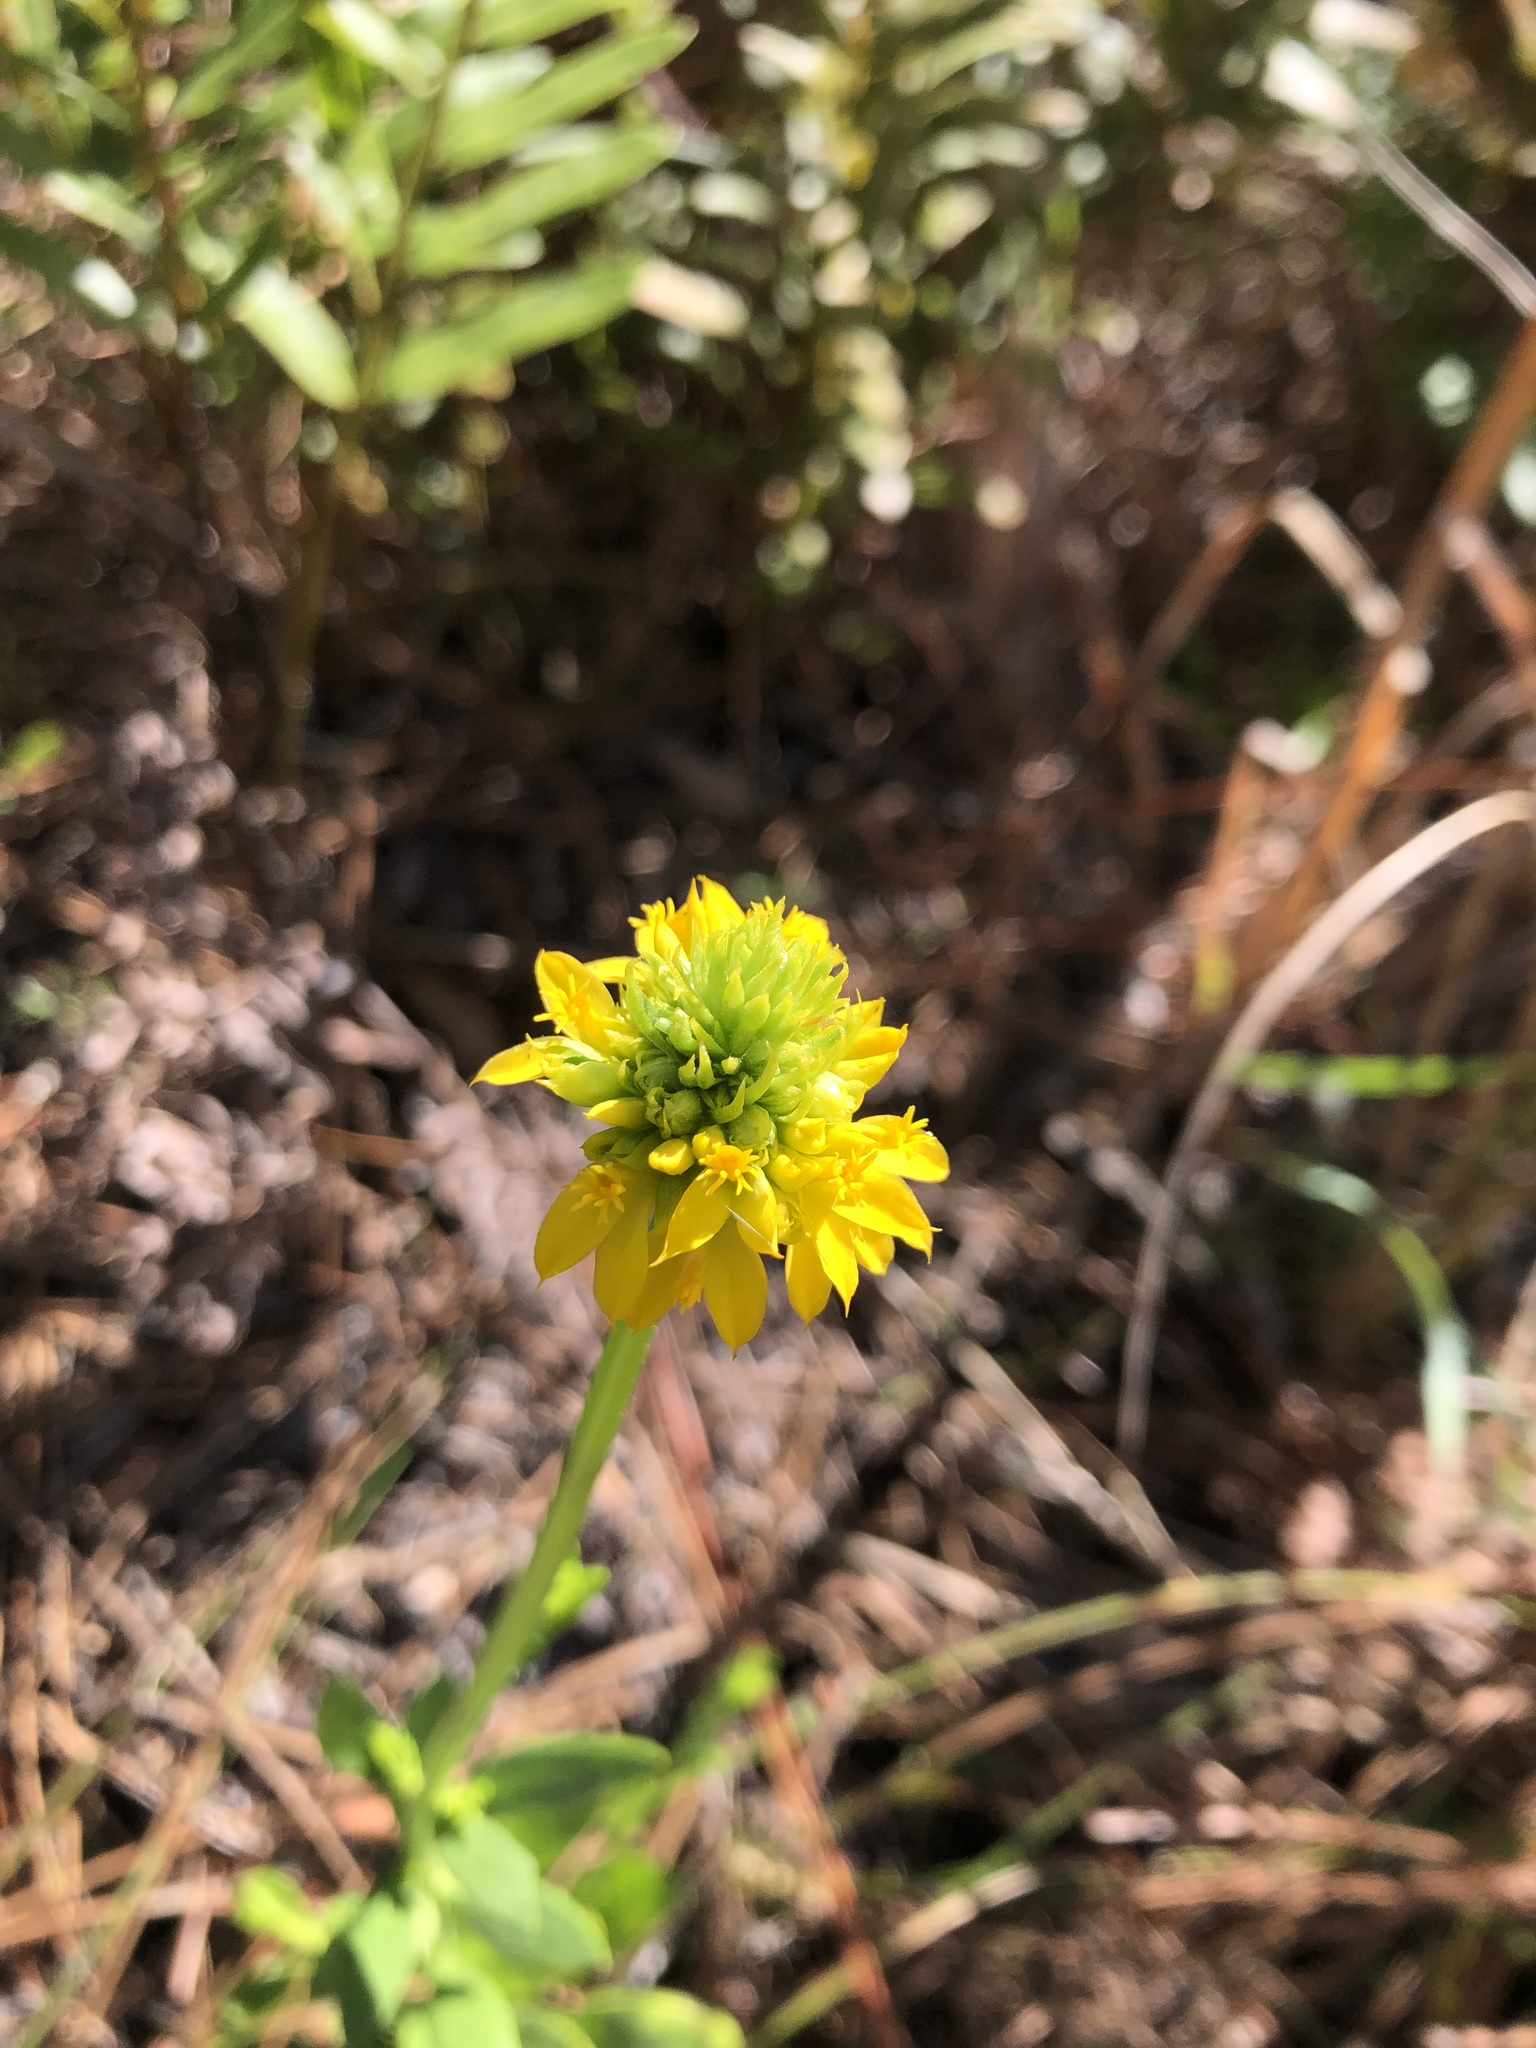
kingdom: Plantae
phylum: Tracheophyta
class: Magnoliopsida
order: Fabales
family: Polygalaceae
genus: Polygala
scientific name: Polygala rugelii
